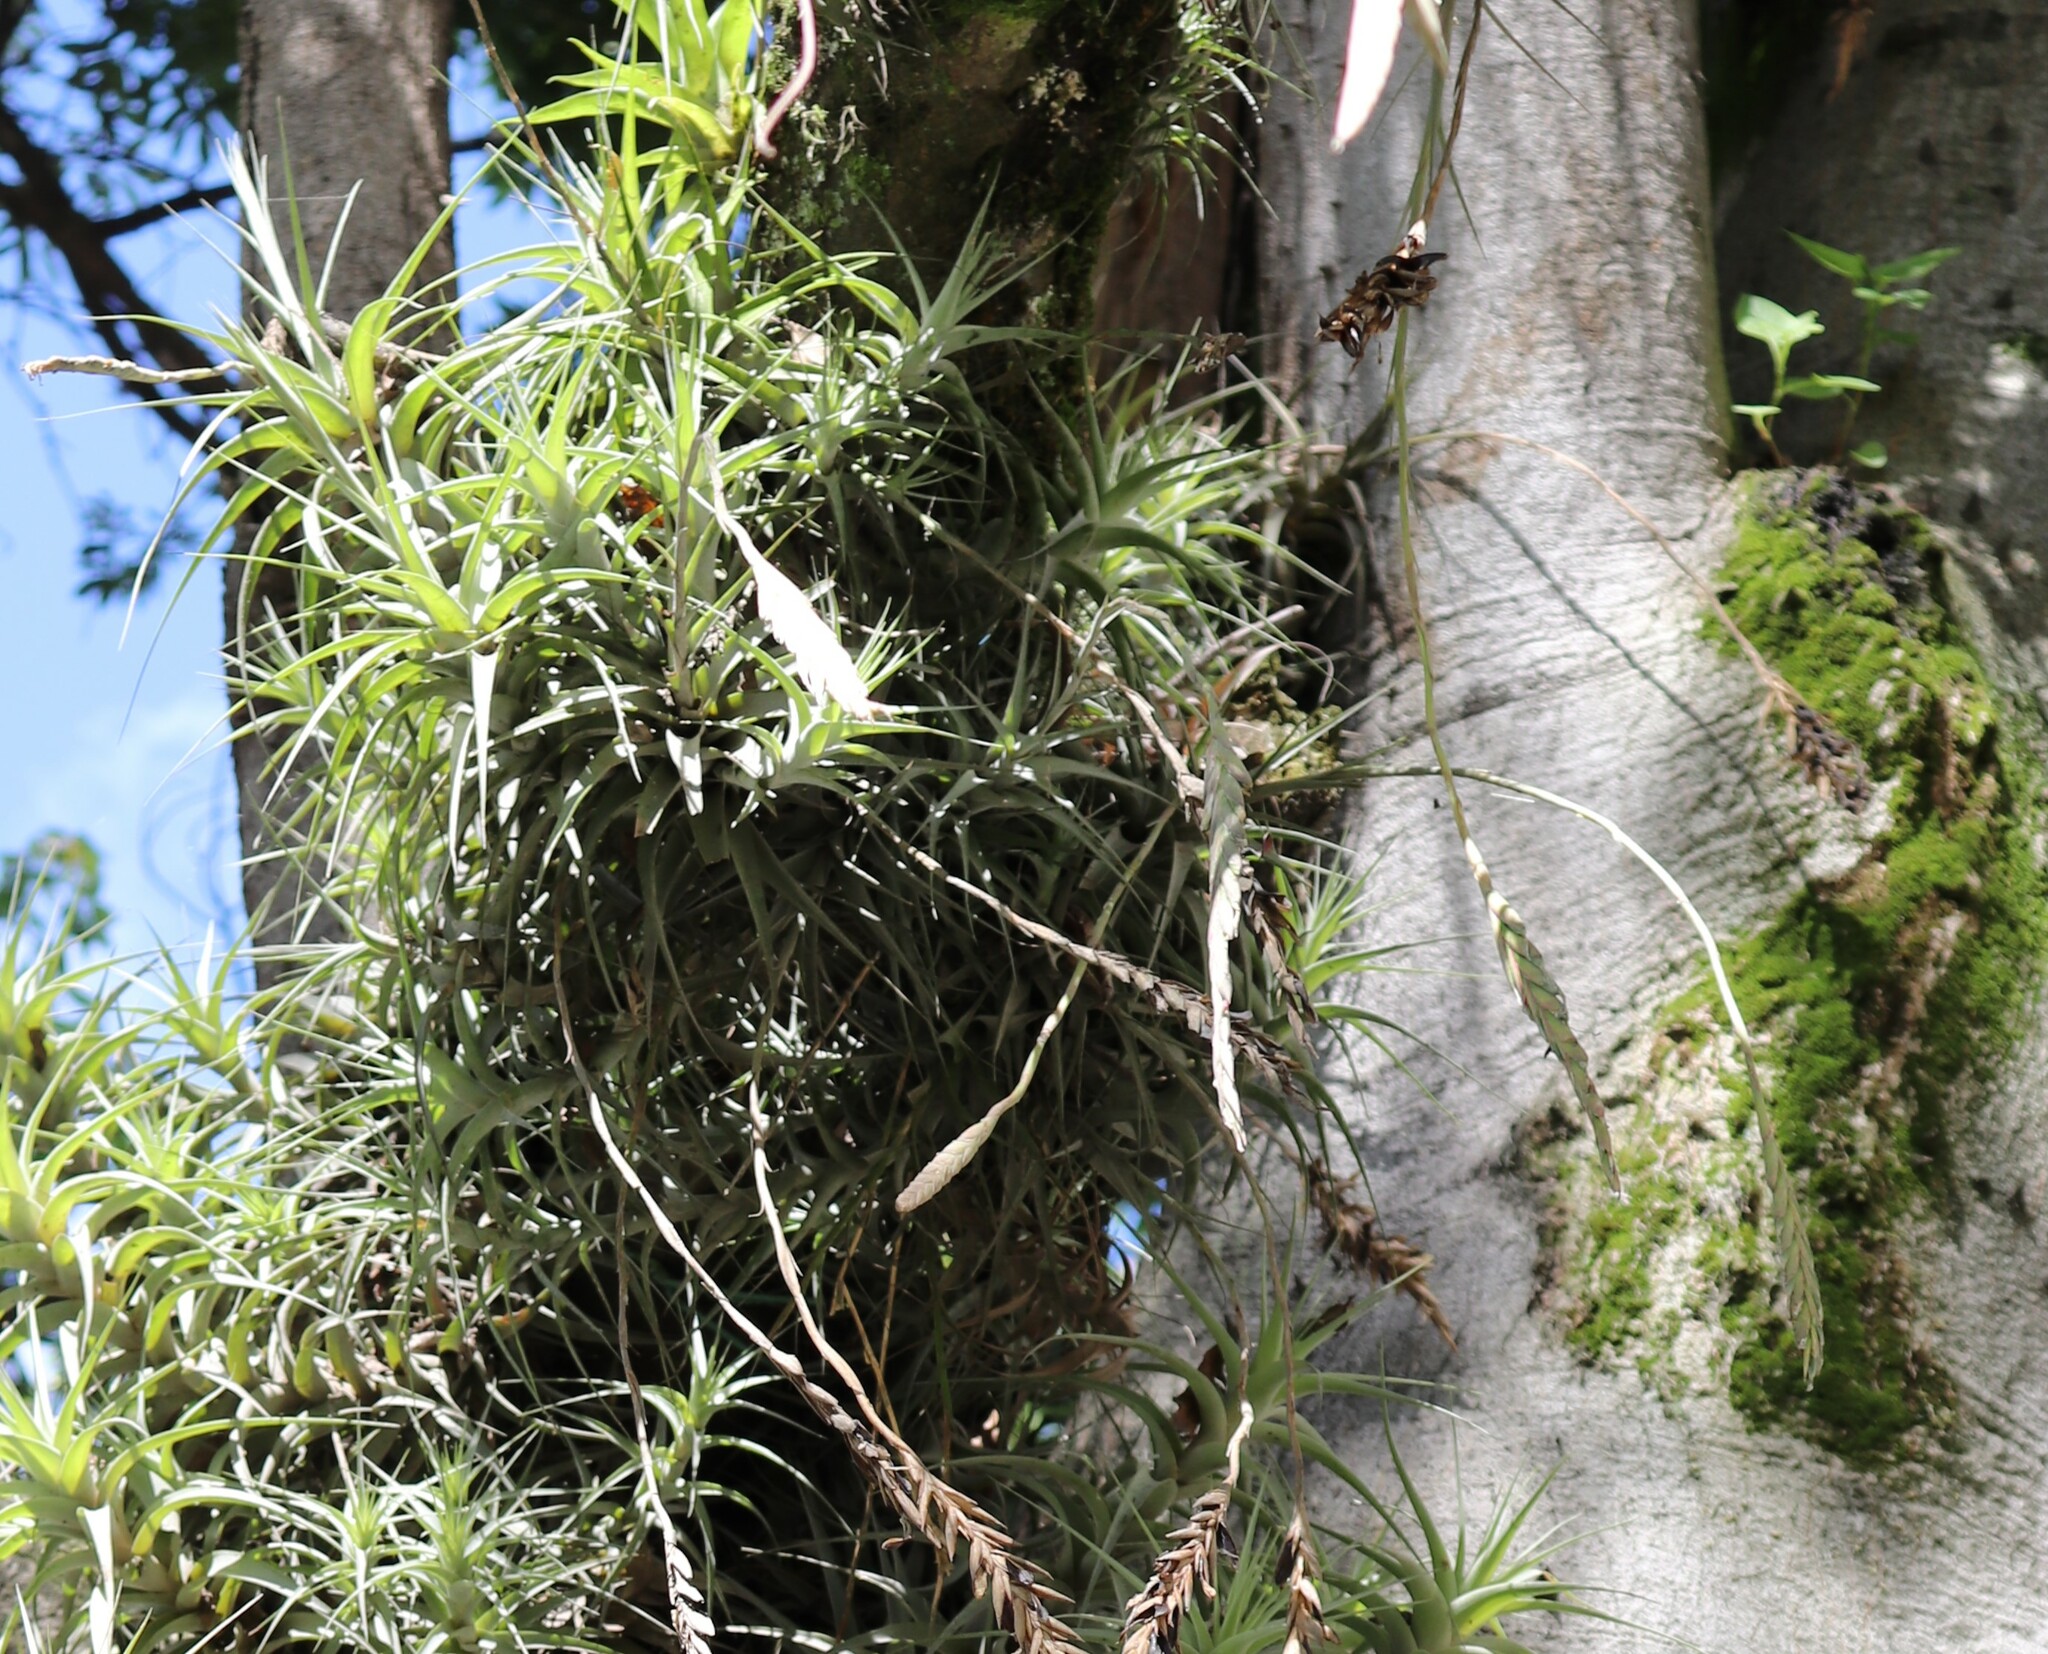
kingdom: Plantae
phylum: Tracheophyta
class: Liliopsida
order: Poales
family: Bromeliaceae
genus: Tillandsia
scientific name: Tillandsia incarnata
